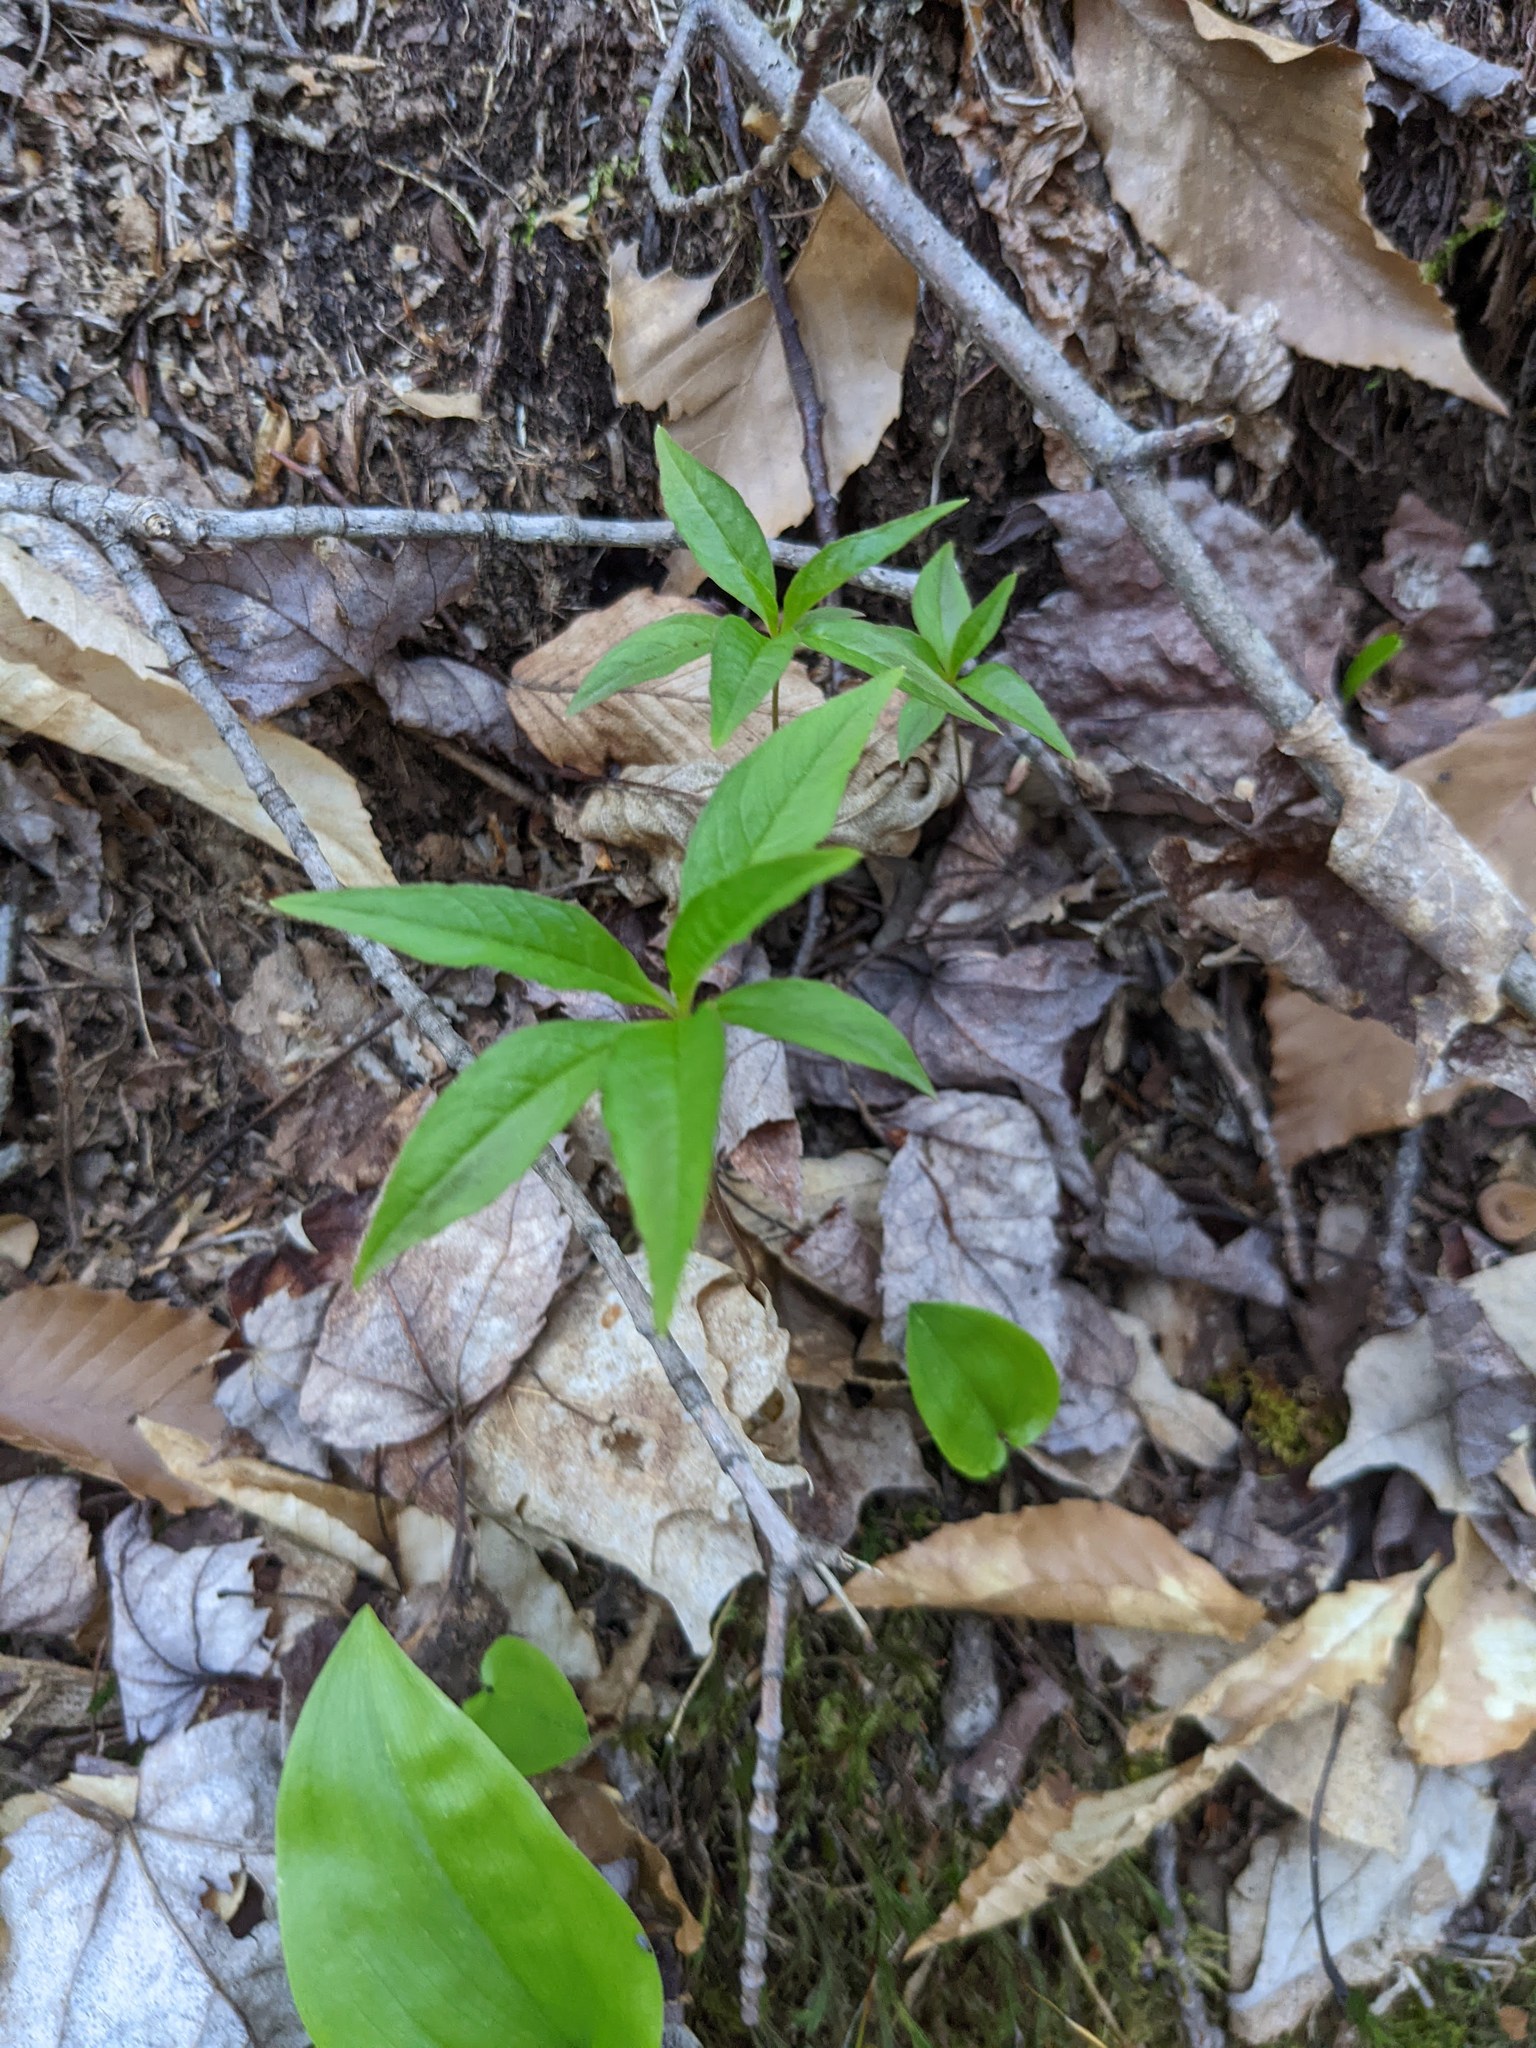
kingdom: Plantae
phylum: Tracheophyta
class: Magnoliopsida
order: Ericales
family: Primulaceae
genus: Lysimachia
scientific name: Lysimachia borealis
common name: American starflower
